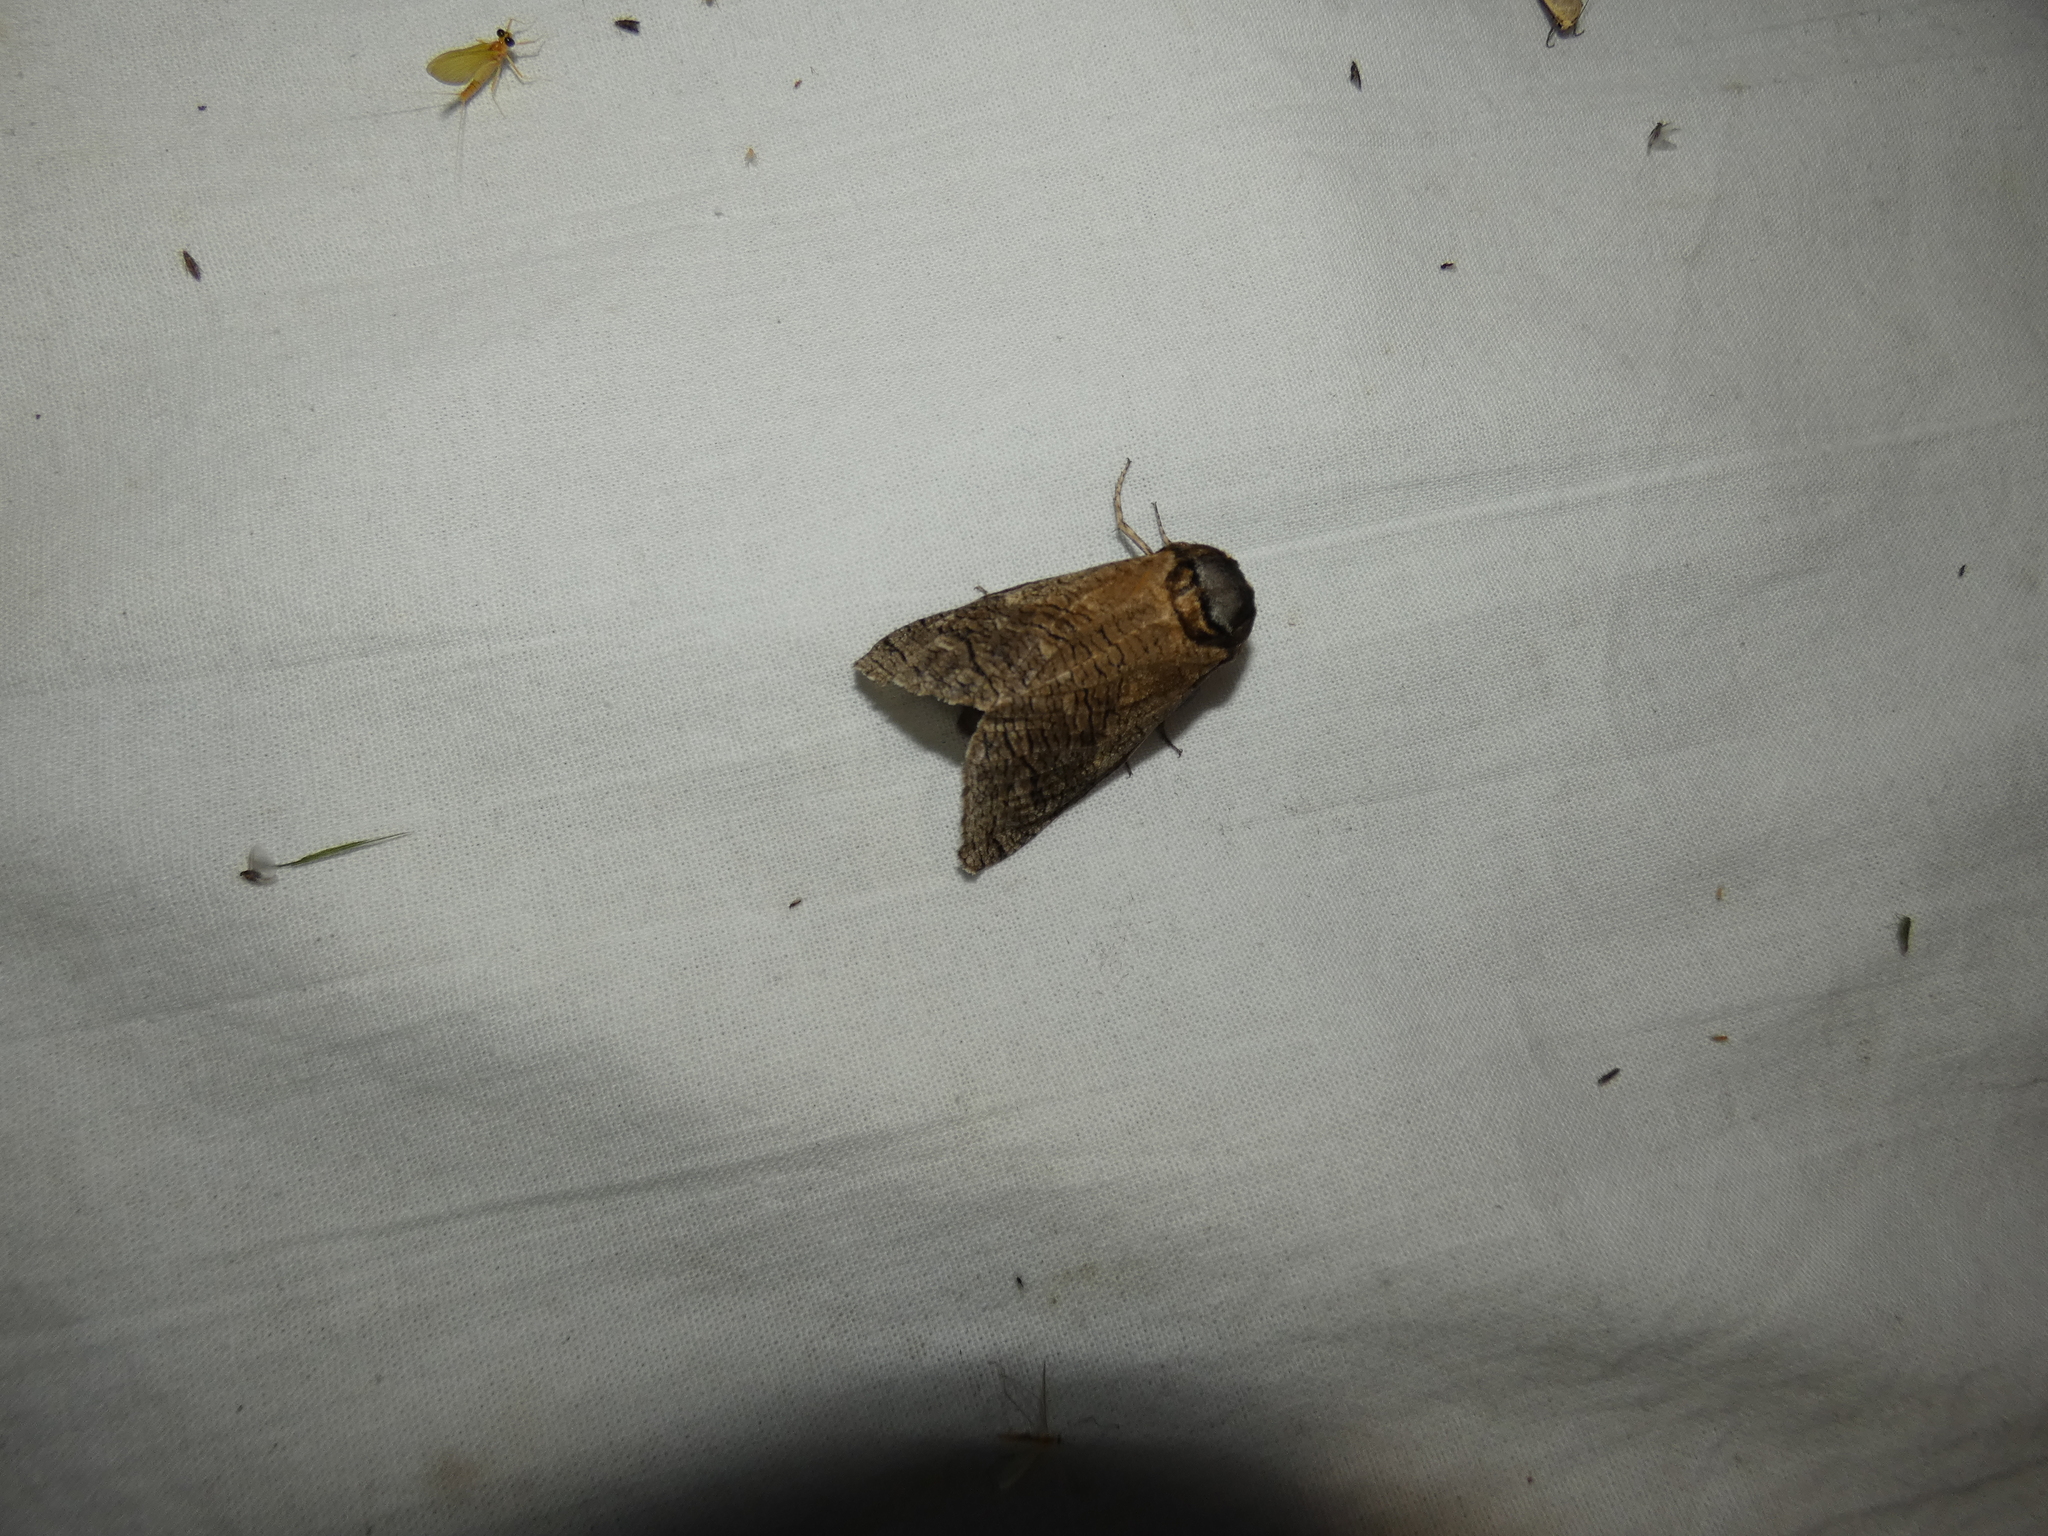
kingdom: Animalia
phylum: Arthropoda
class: Insecta
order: Lepidoptera
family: Cossidae
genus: Cossus
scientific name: Cossus cossus
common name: Goat moth
